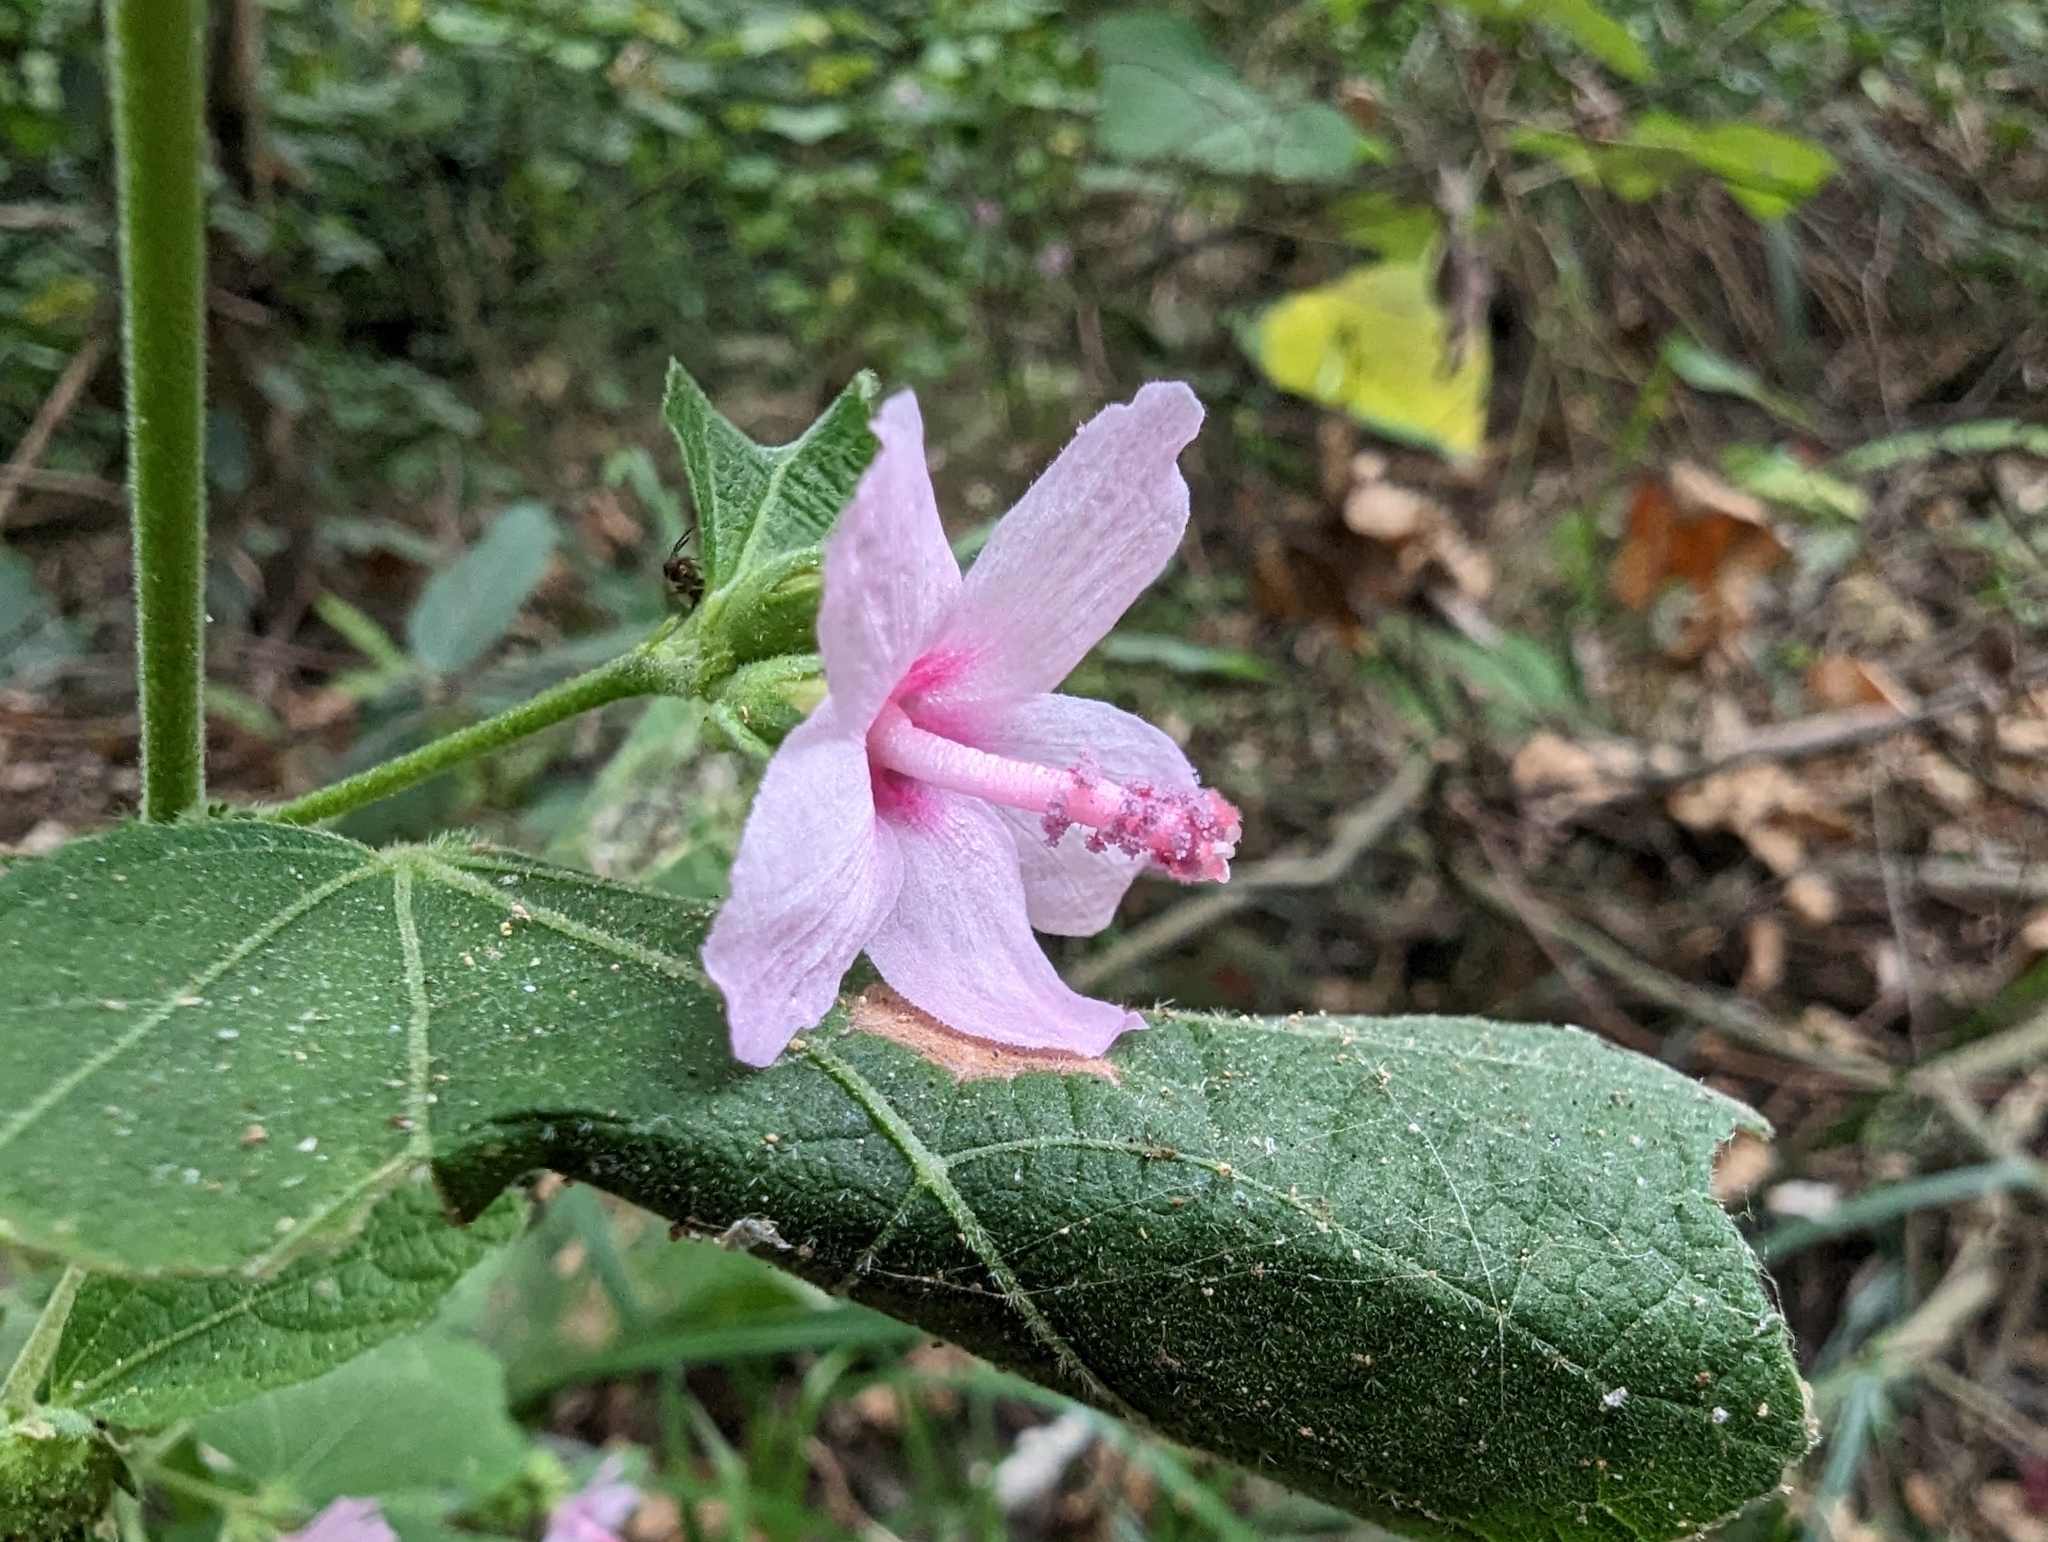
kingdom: Plantae
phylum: Tracheophyta
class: Magnoliopsida
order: Malvales
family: Malvaceae
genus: Urena
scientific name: Urena lobata
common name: Caesarweed
